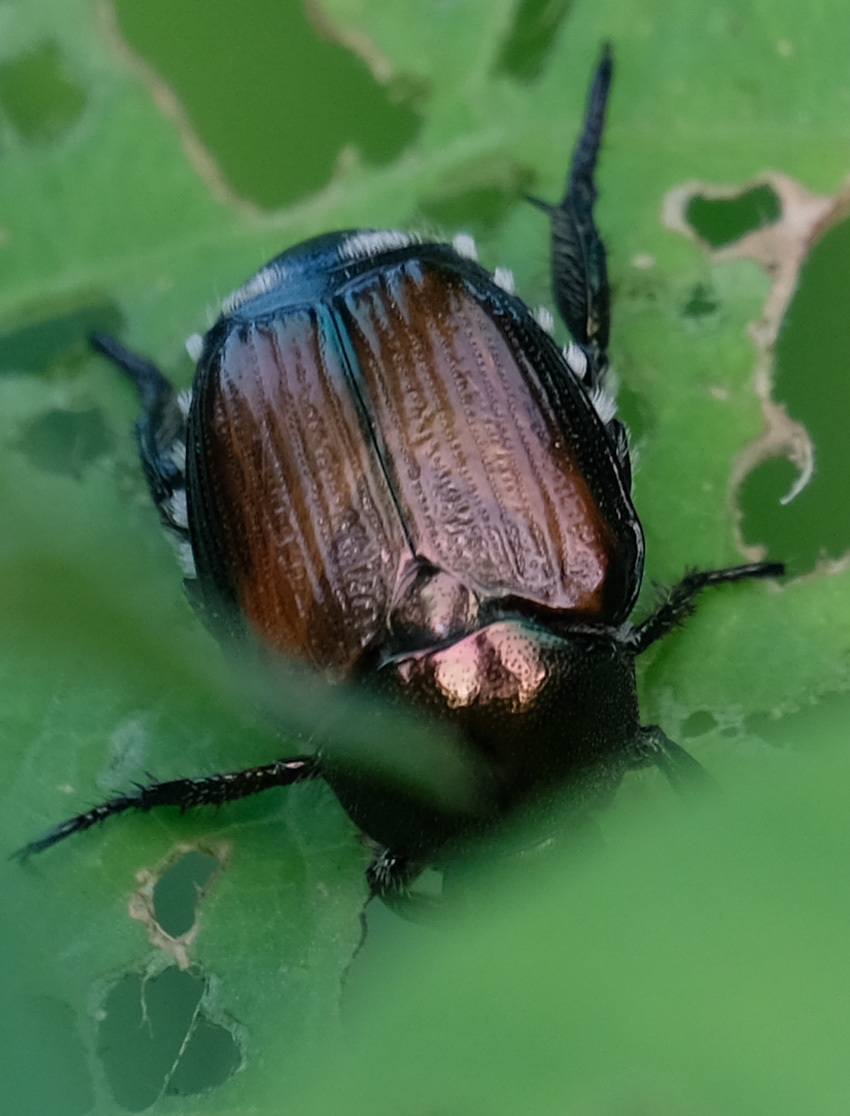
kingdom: Animalia
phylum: Arthropoda
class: Insecta
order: Coleoptera
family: Scarabaeidae
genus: Popillia
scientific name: Popillia japonica
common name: Japanese beetle
